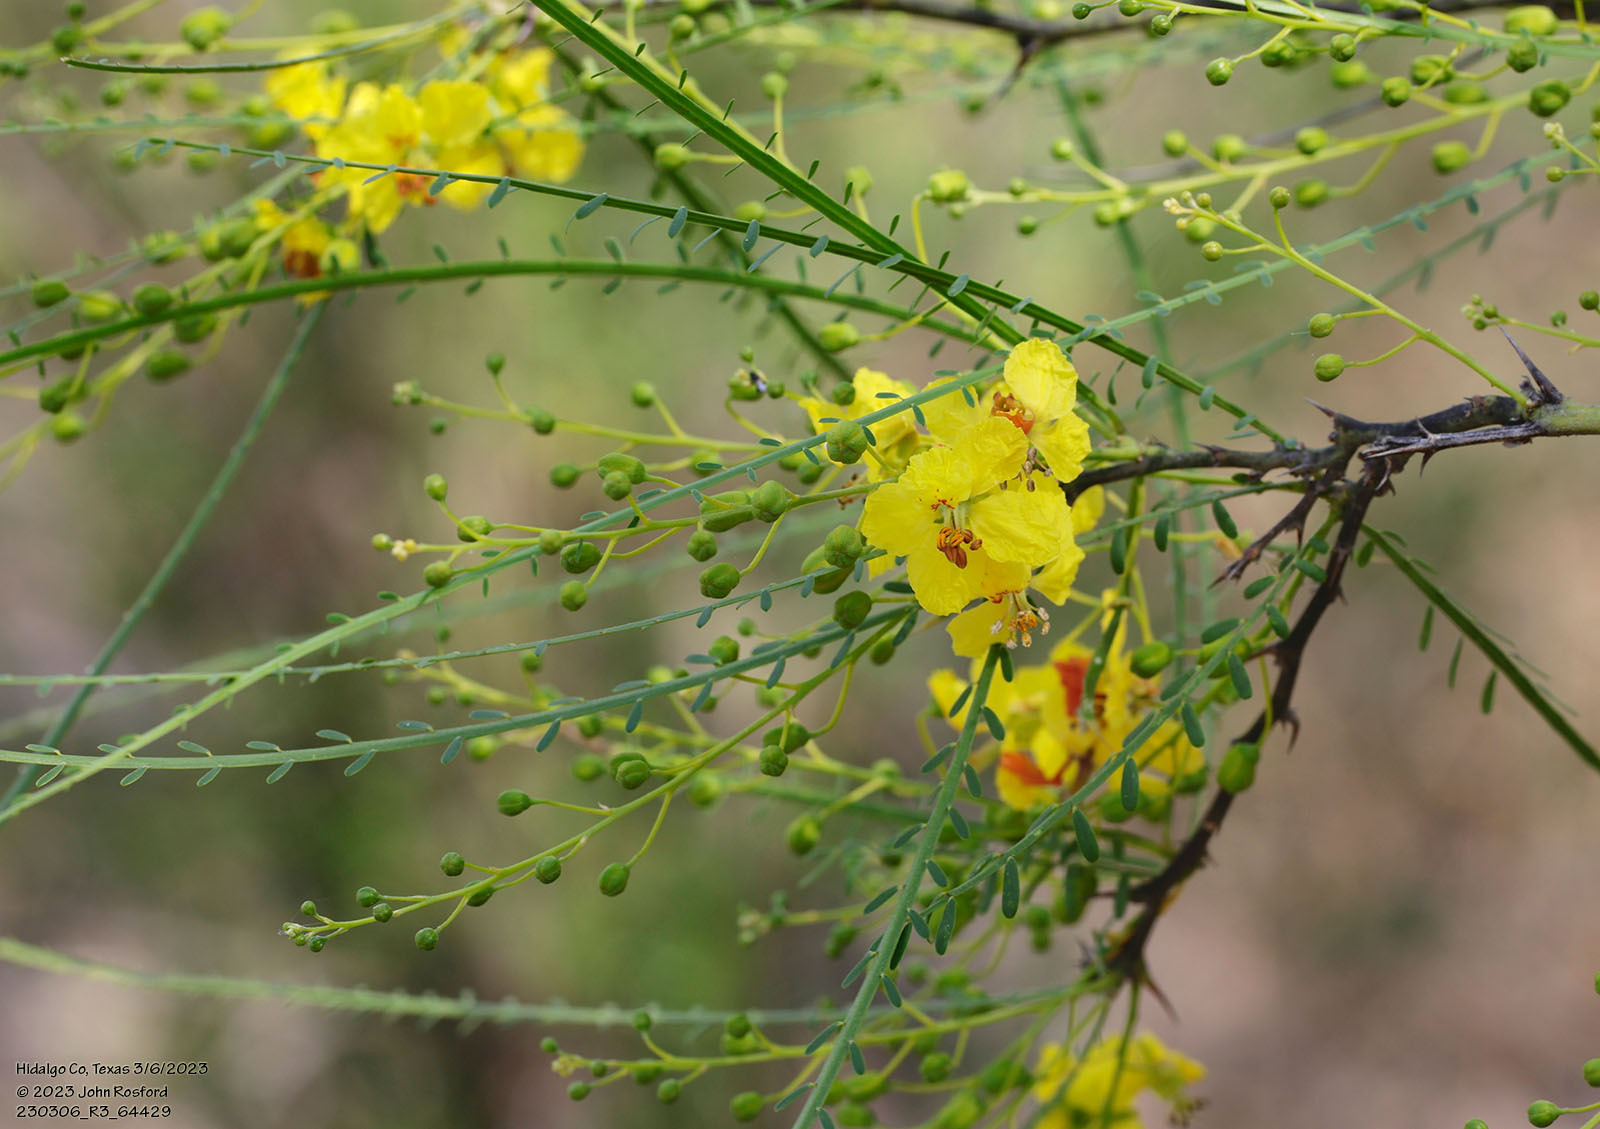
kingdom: Plantae
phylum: Tracheophyta
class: Magnoliopsida
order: Fabales
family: Fabaceae
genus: Parkinsonia
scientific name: Parkinsonia aculeata
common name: Jerusalem thorn
